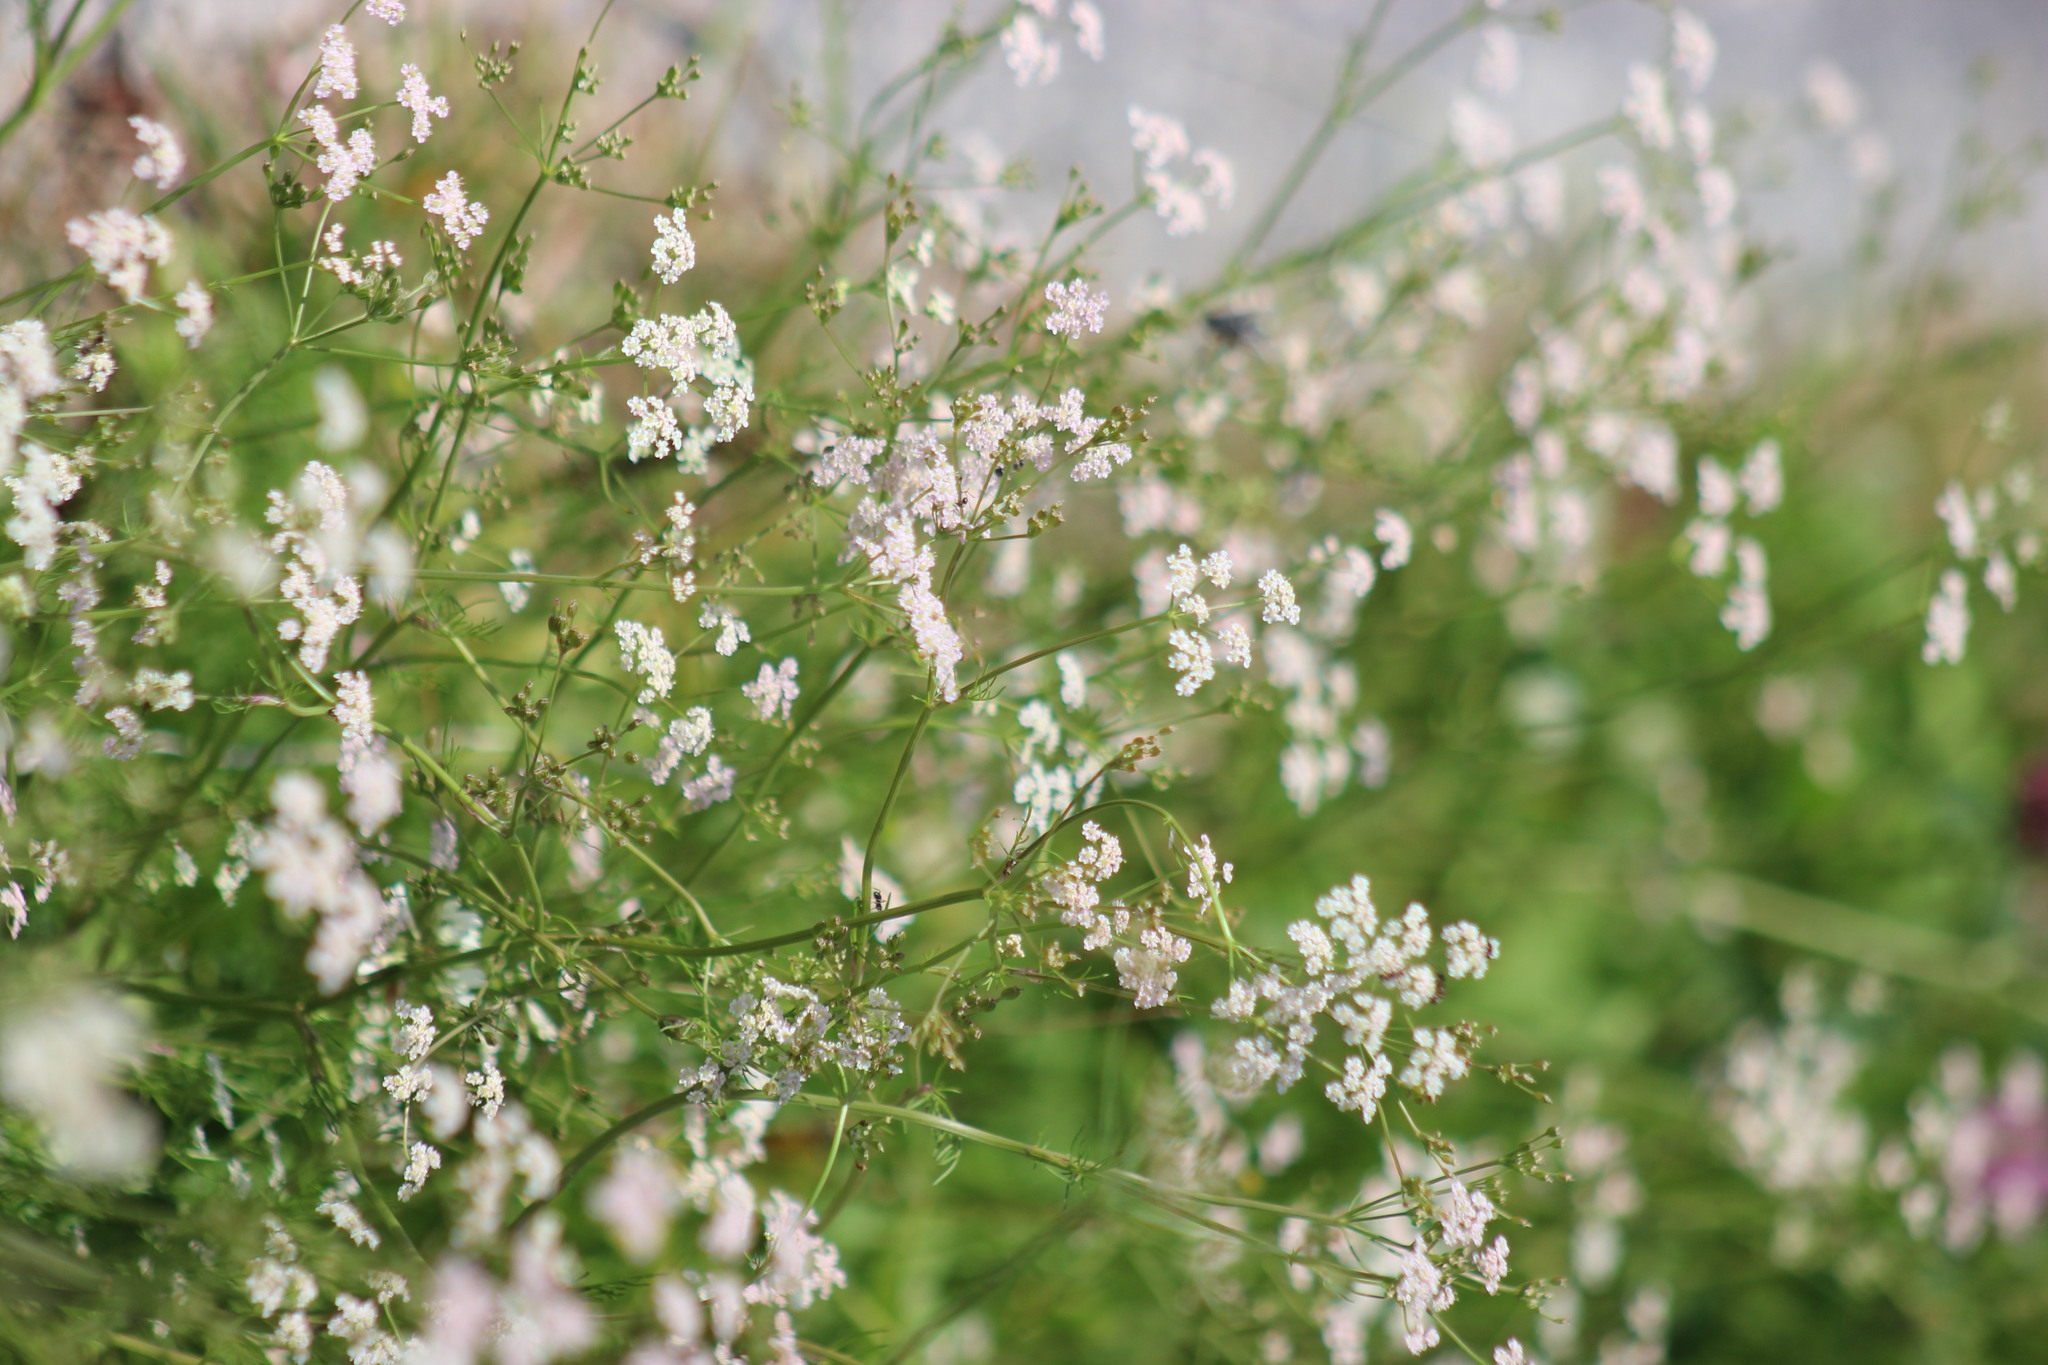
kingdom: Plantae
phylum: Tracheophyta
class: Magnoliopsida
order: Apiales
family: Apiaceae
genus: Carum
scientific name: Carum carvi
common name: Caraway
